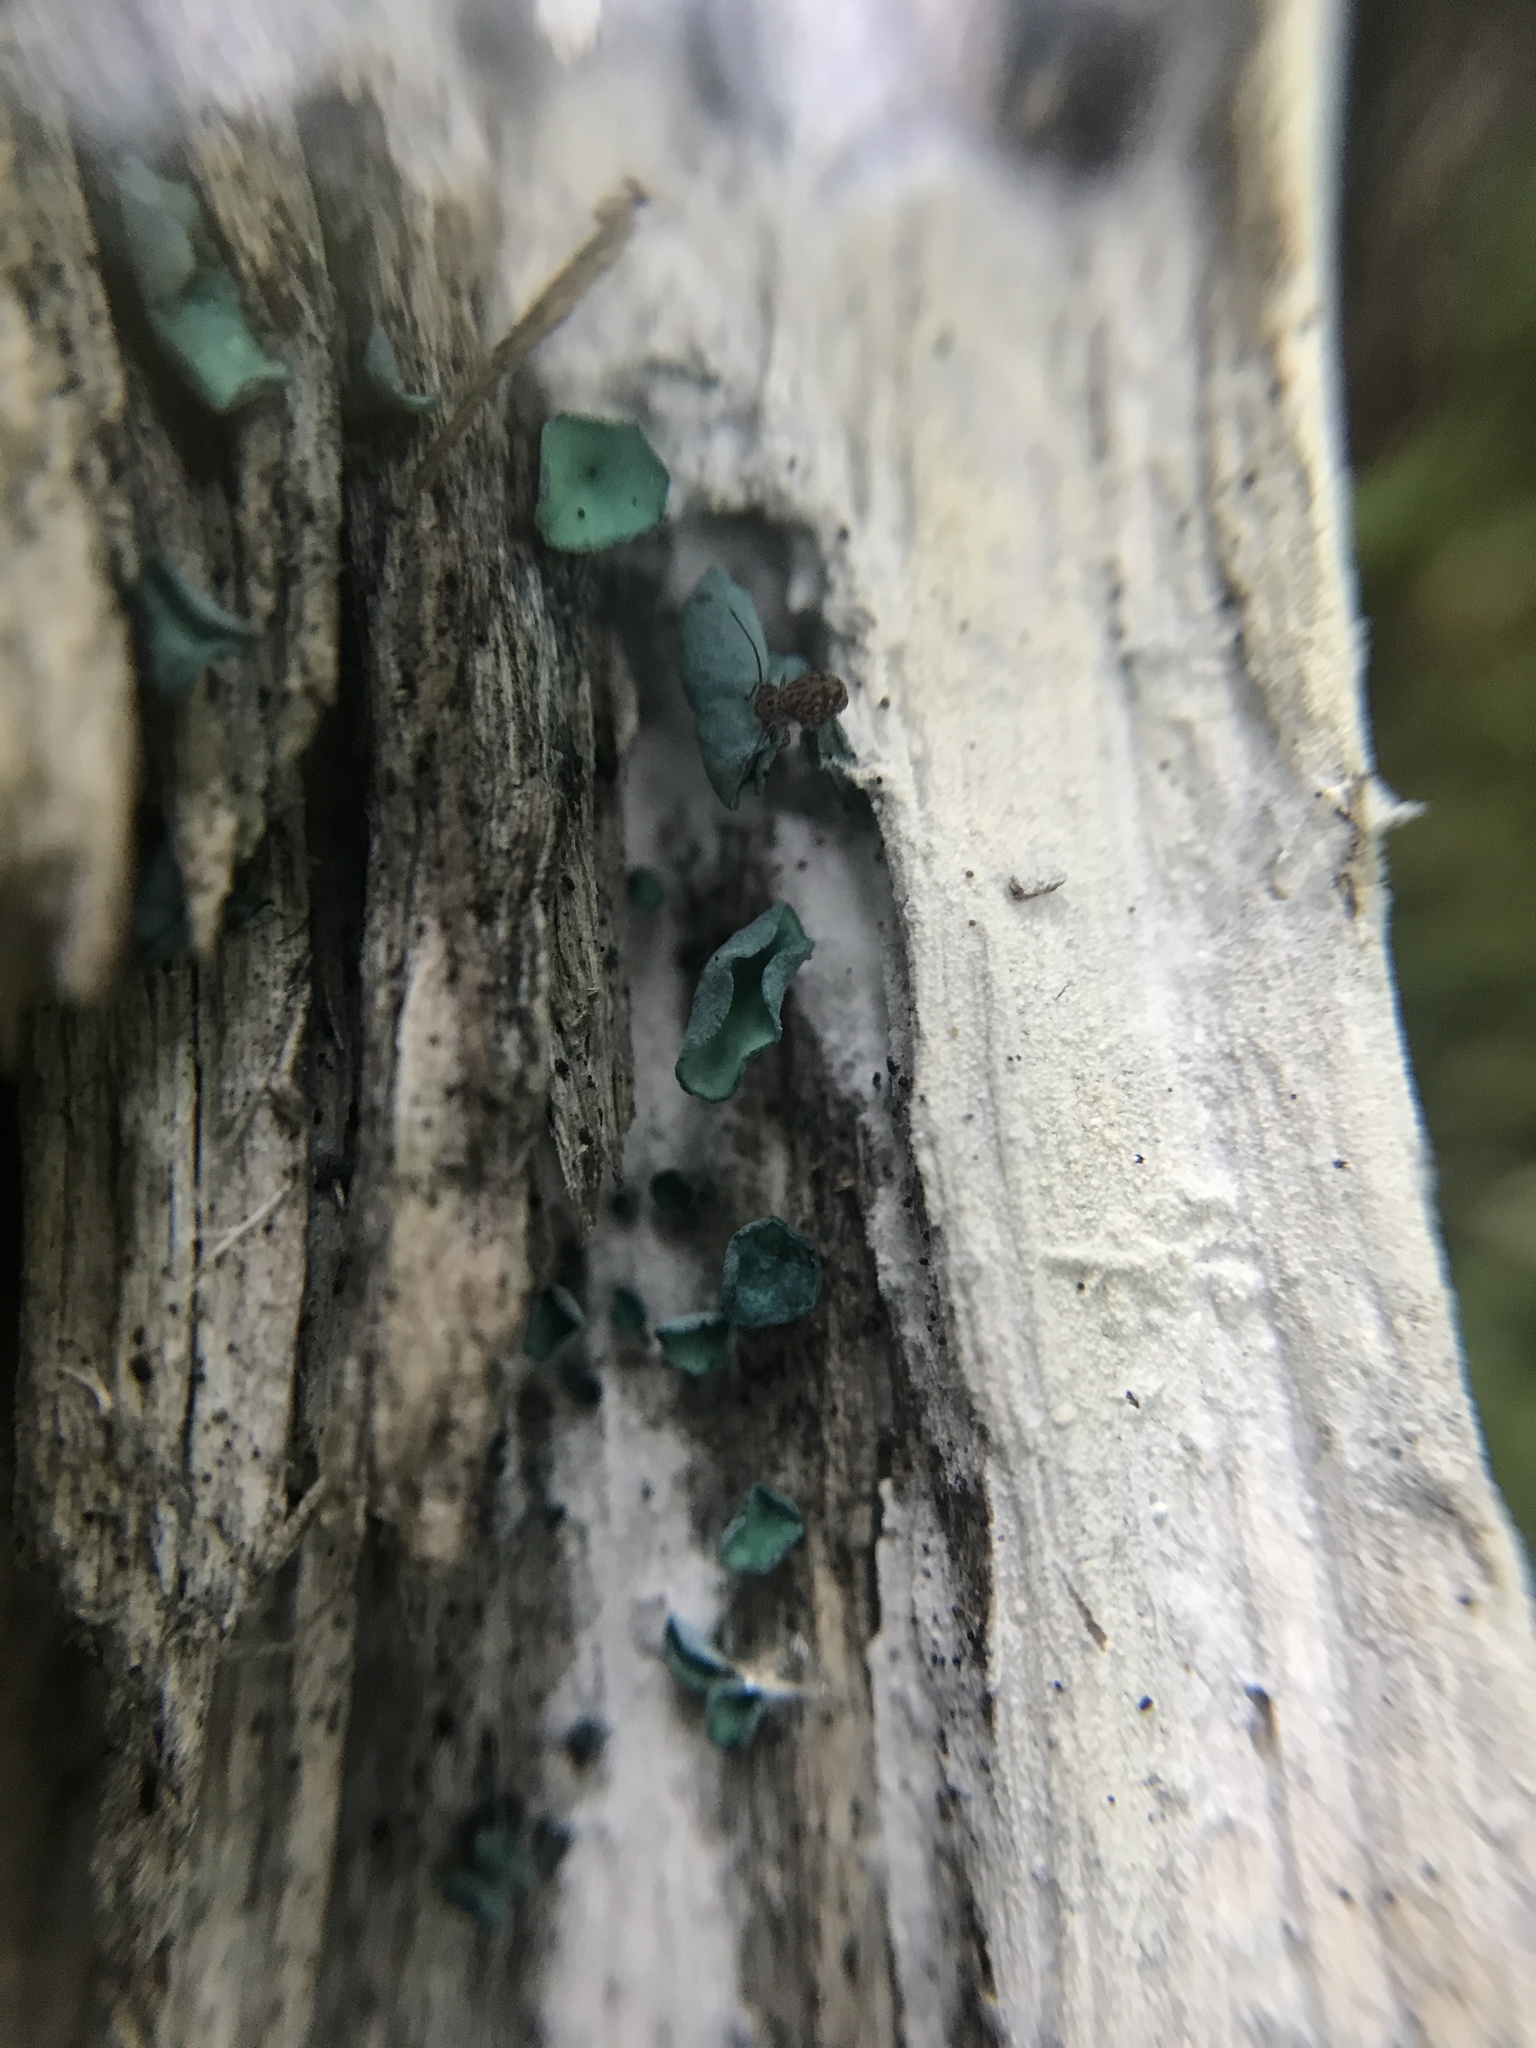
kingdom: Fungi
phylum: Ascomycota
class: Leotiomycetes
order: Helotiales
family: Chlorociboriaceae
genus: Chlorociboria
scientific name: Chlorociboria aeruginascens
